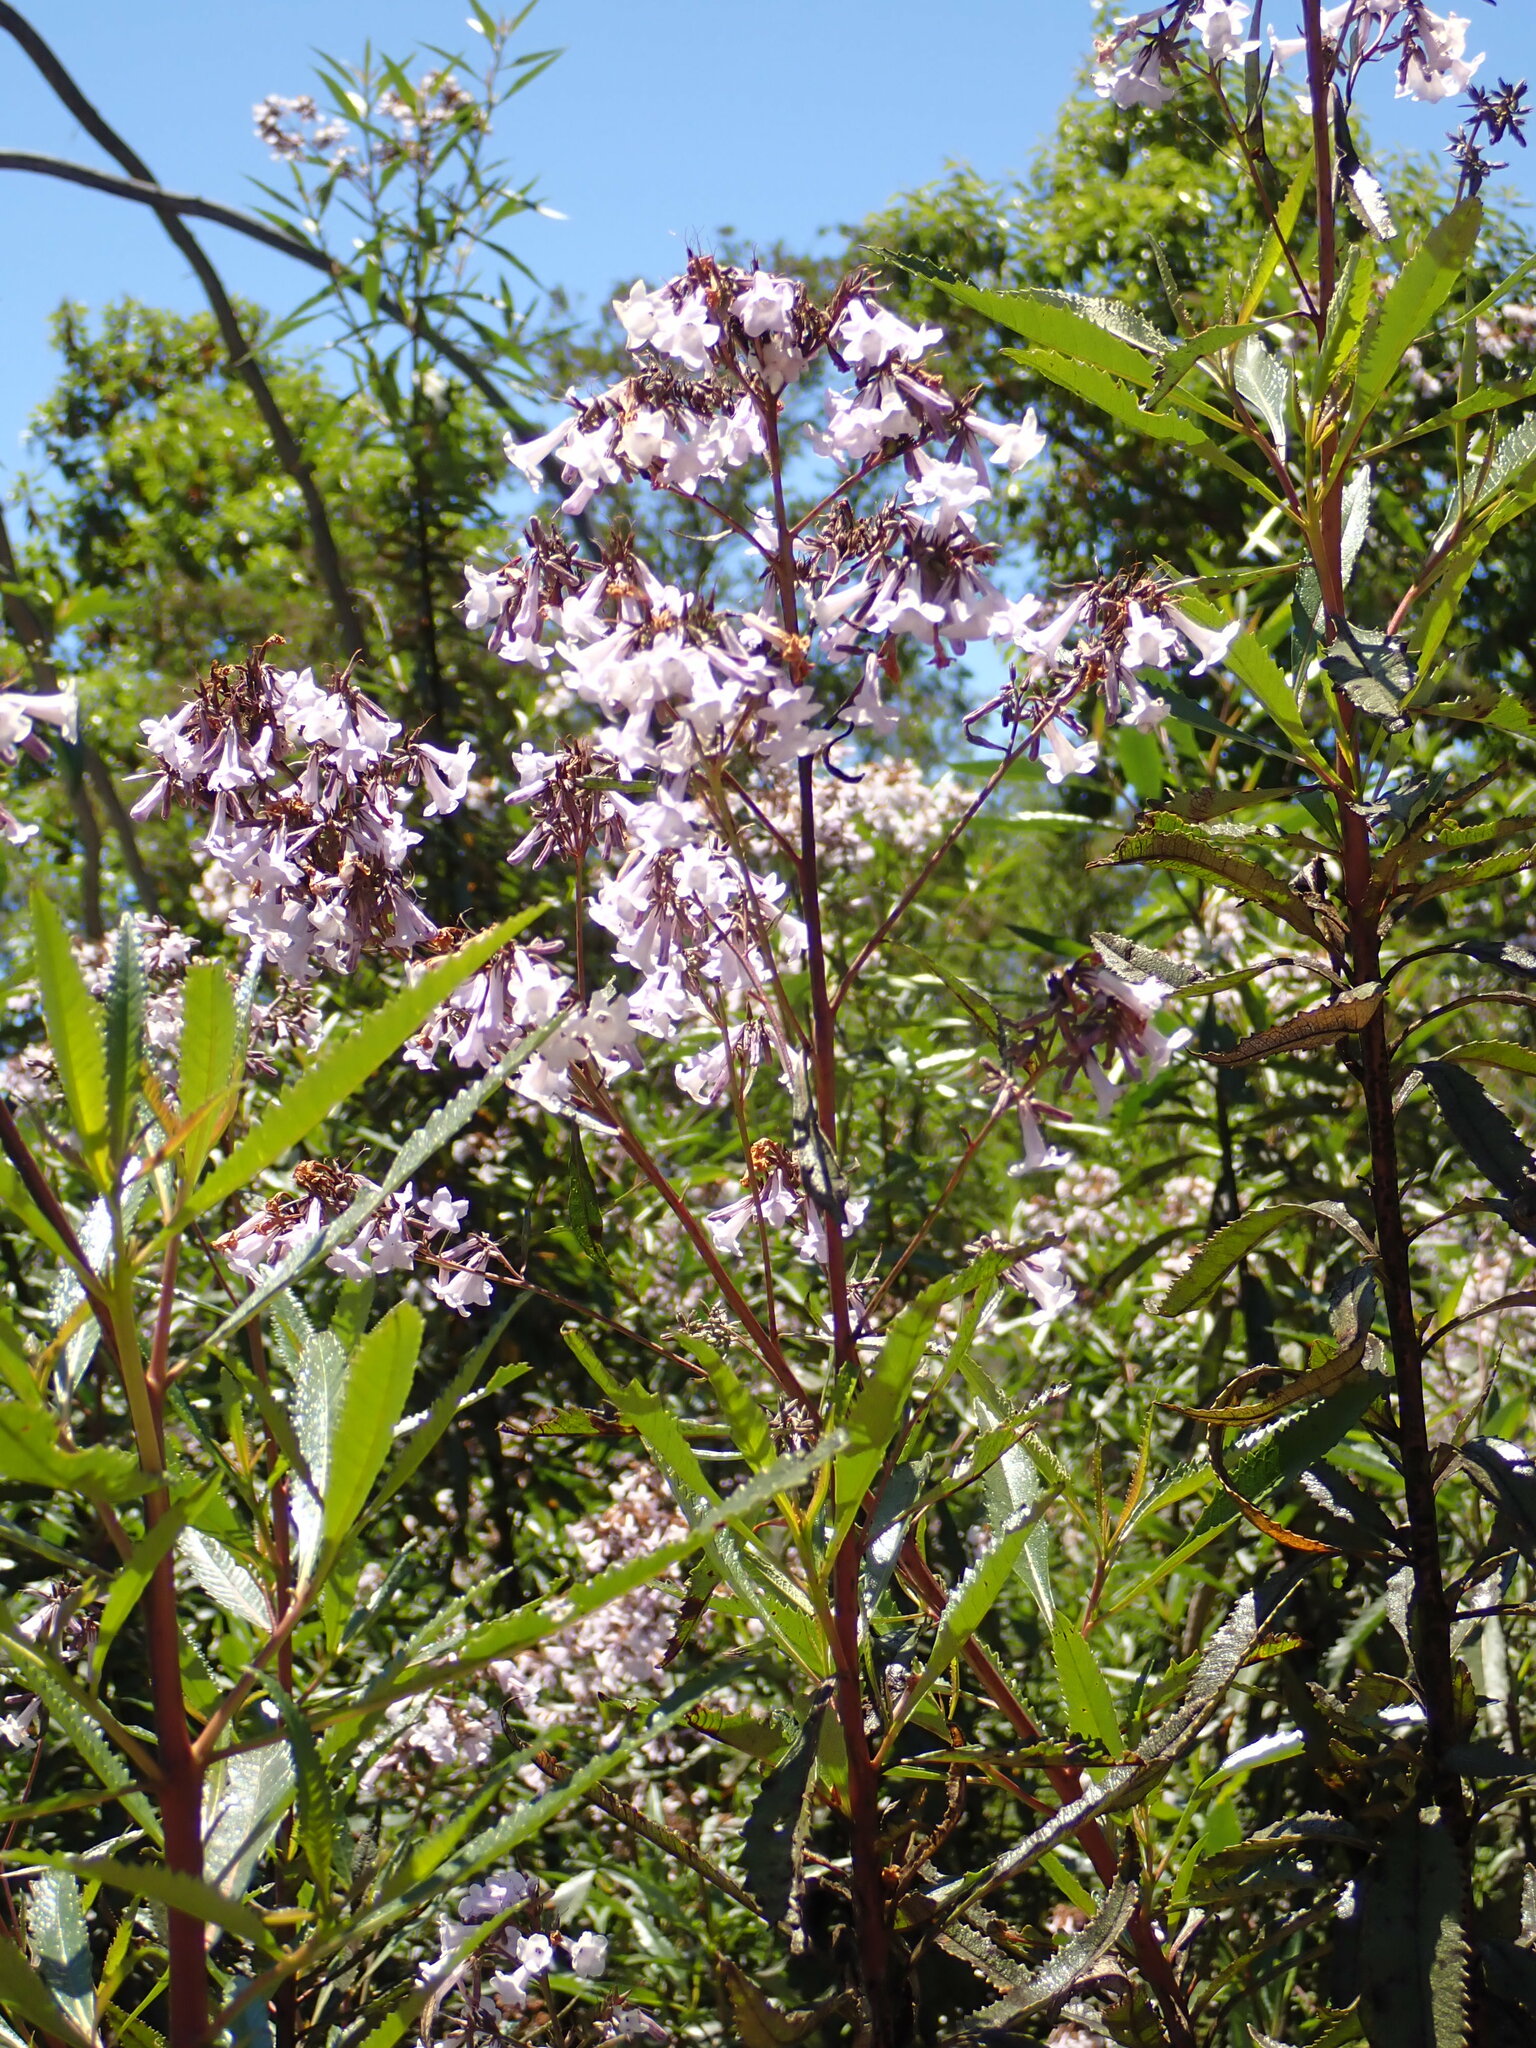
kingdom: Plantae
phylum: Tracheophyta
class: Magnoliopsida
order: Boraginales
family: Namaceae
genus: Eriodictyon
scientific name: Eriodictyon californicum
